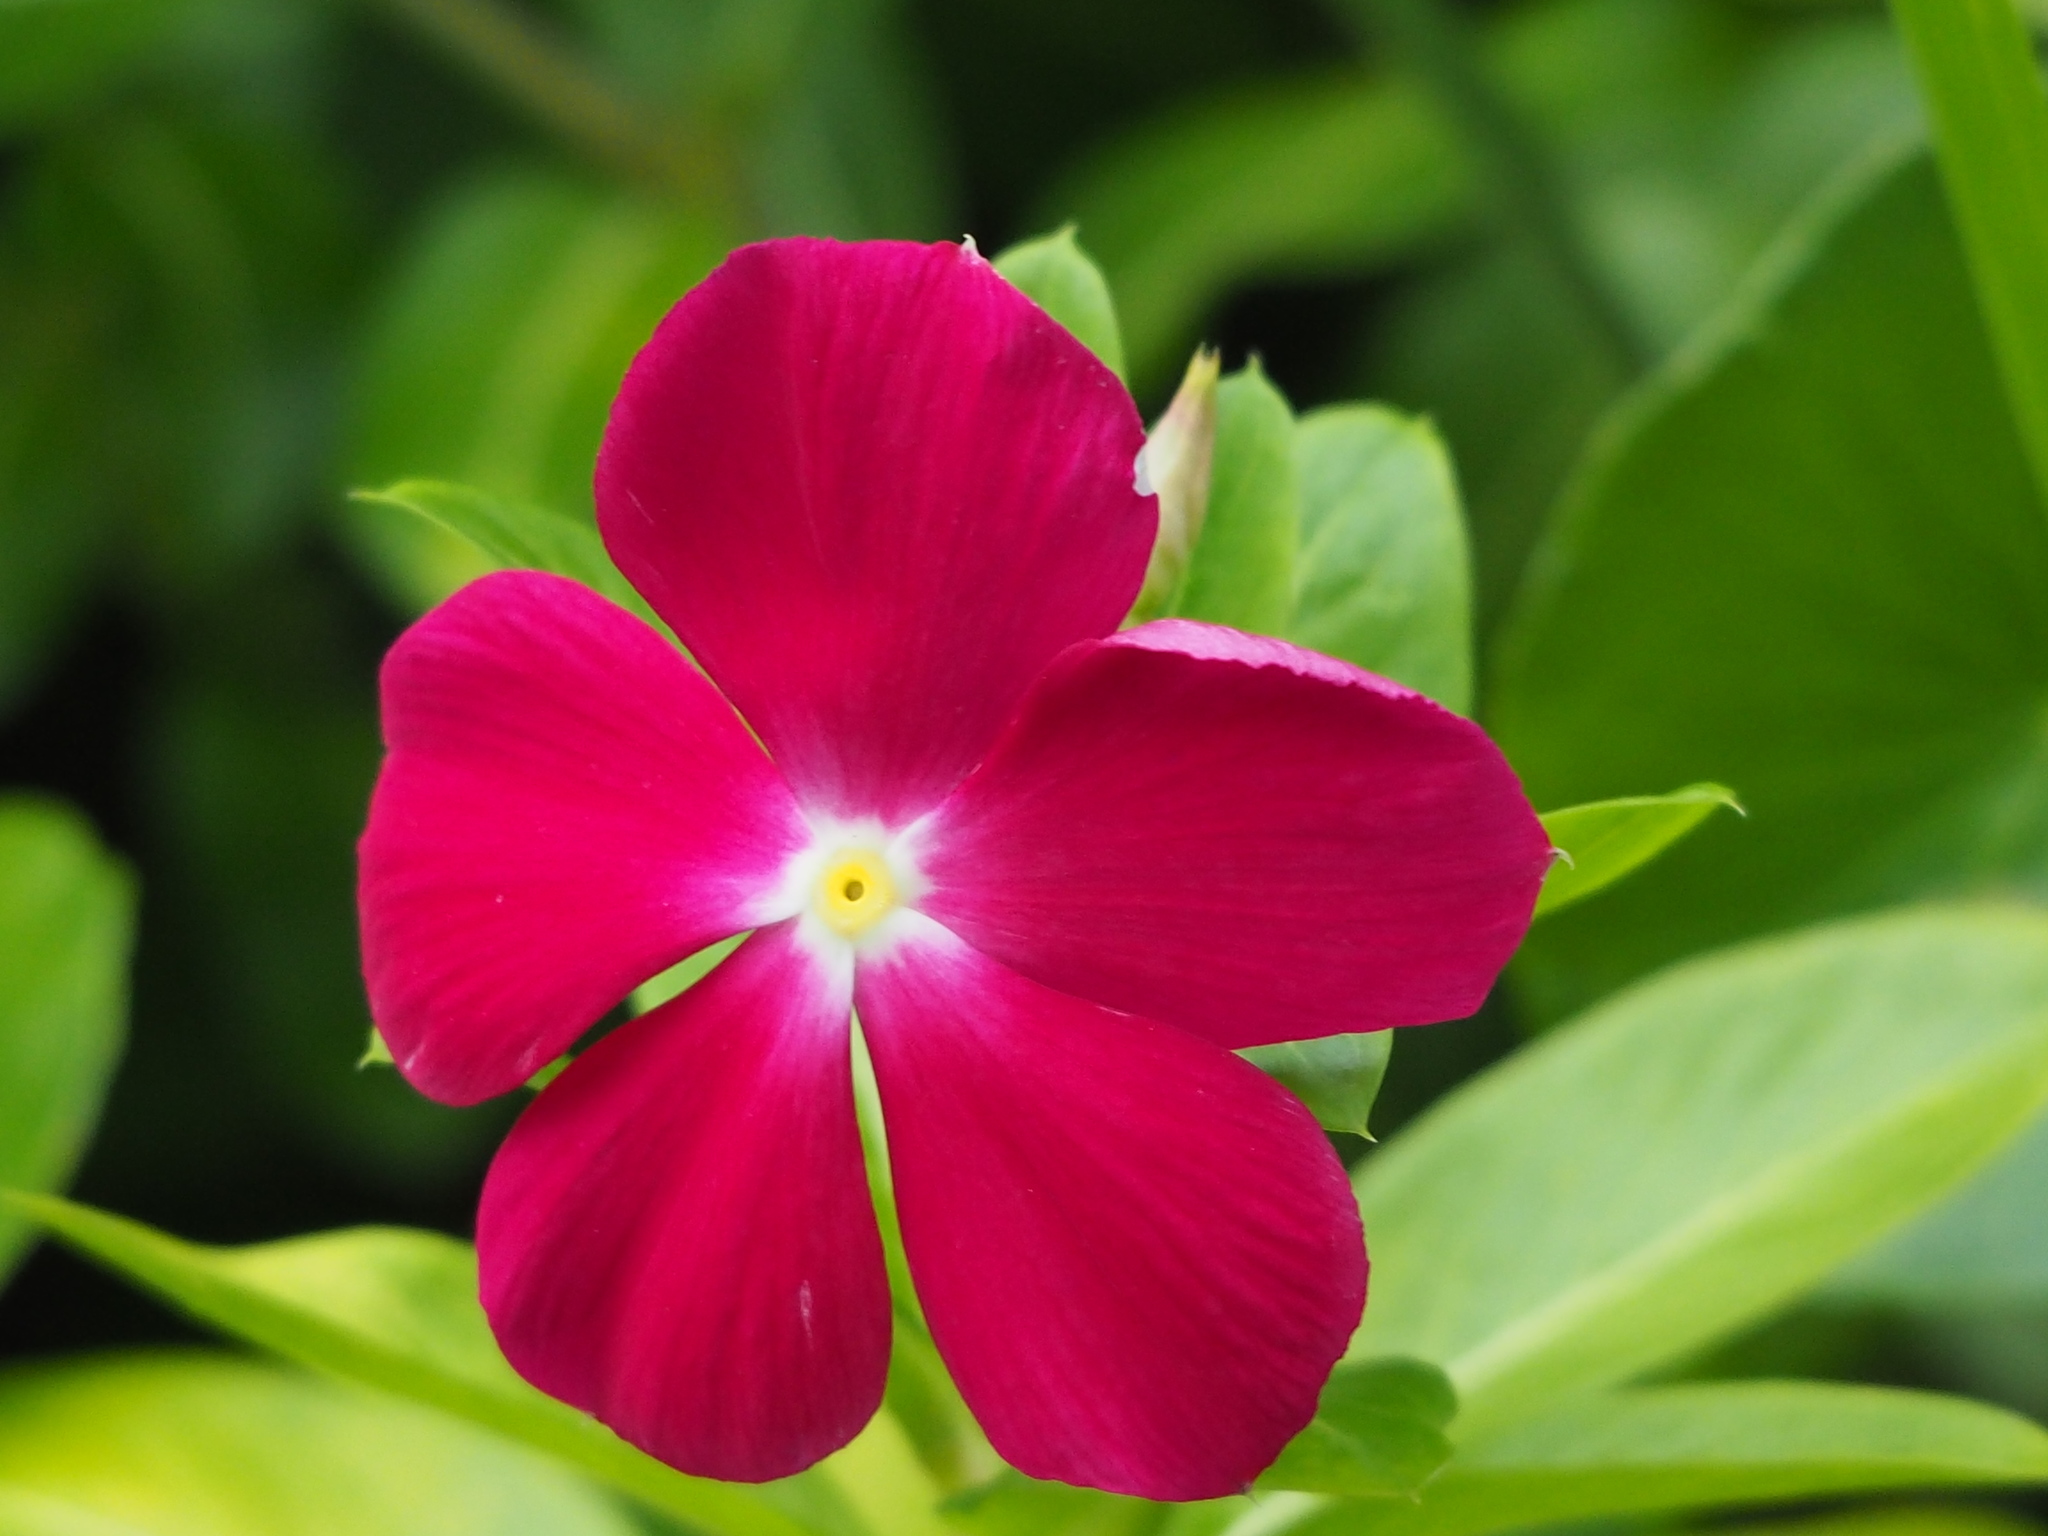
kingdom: Plantae
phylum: Tracheophyta
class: Magnoliopsida
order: Gentianales
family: Apocynaceae
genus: Catharanthus
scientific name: Catharanthus roseus
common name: Madagascar periwinkle
